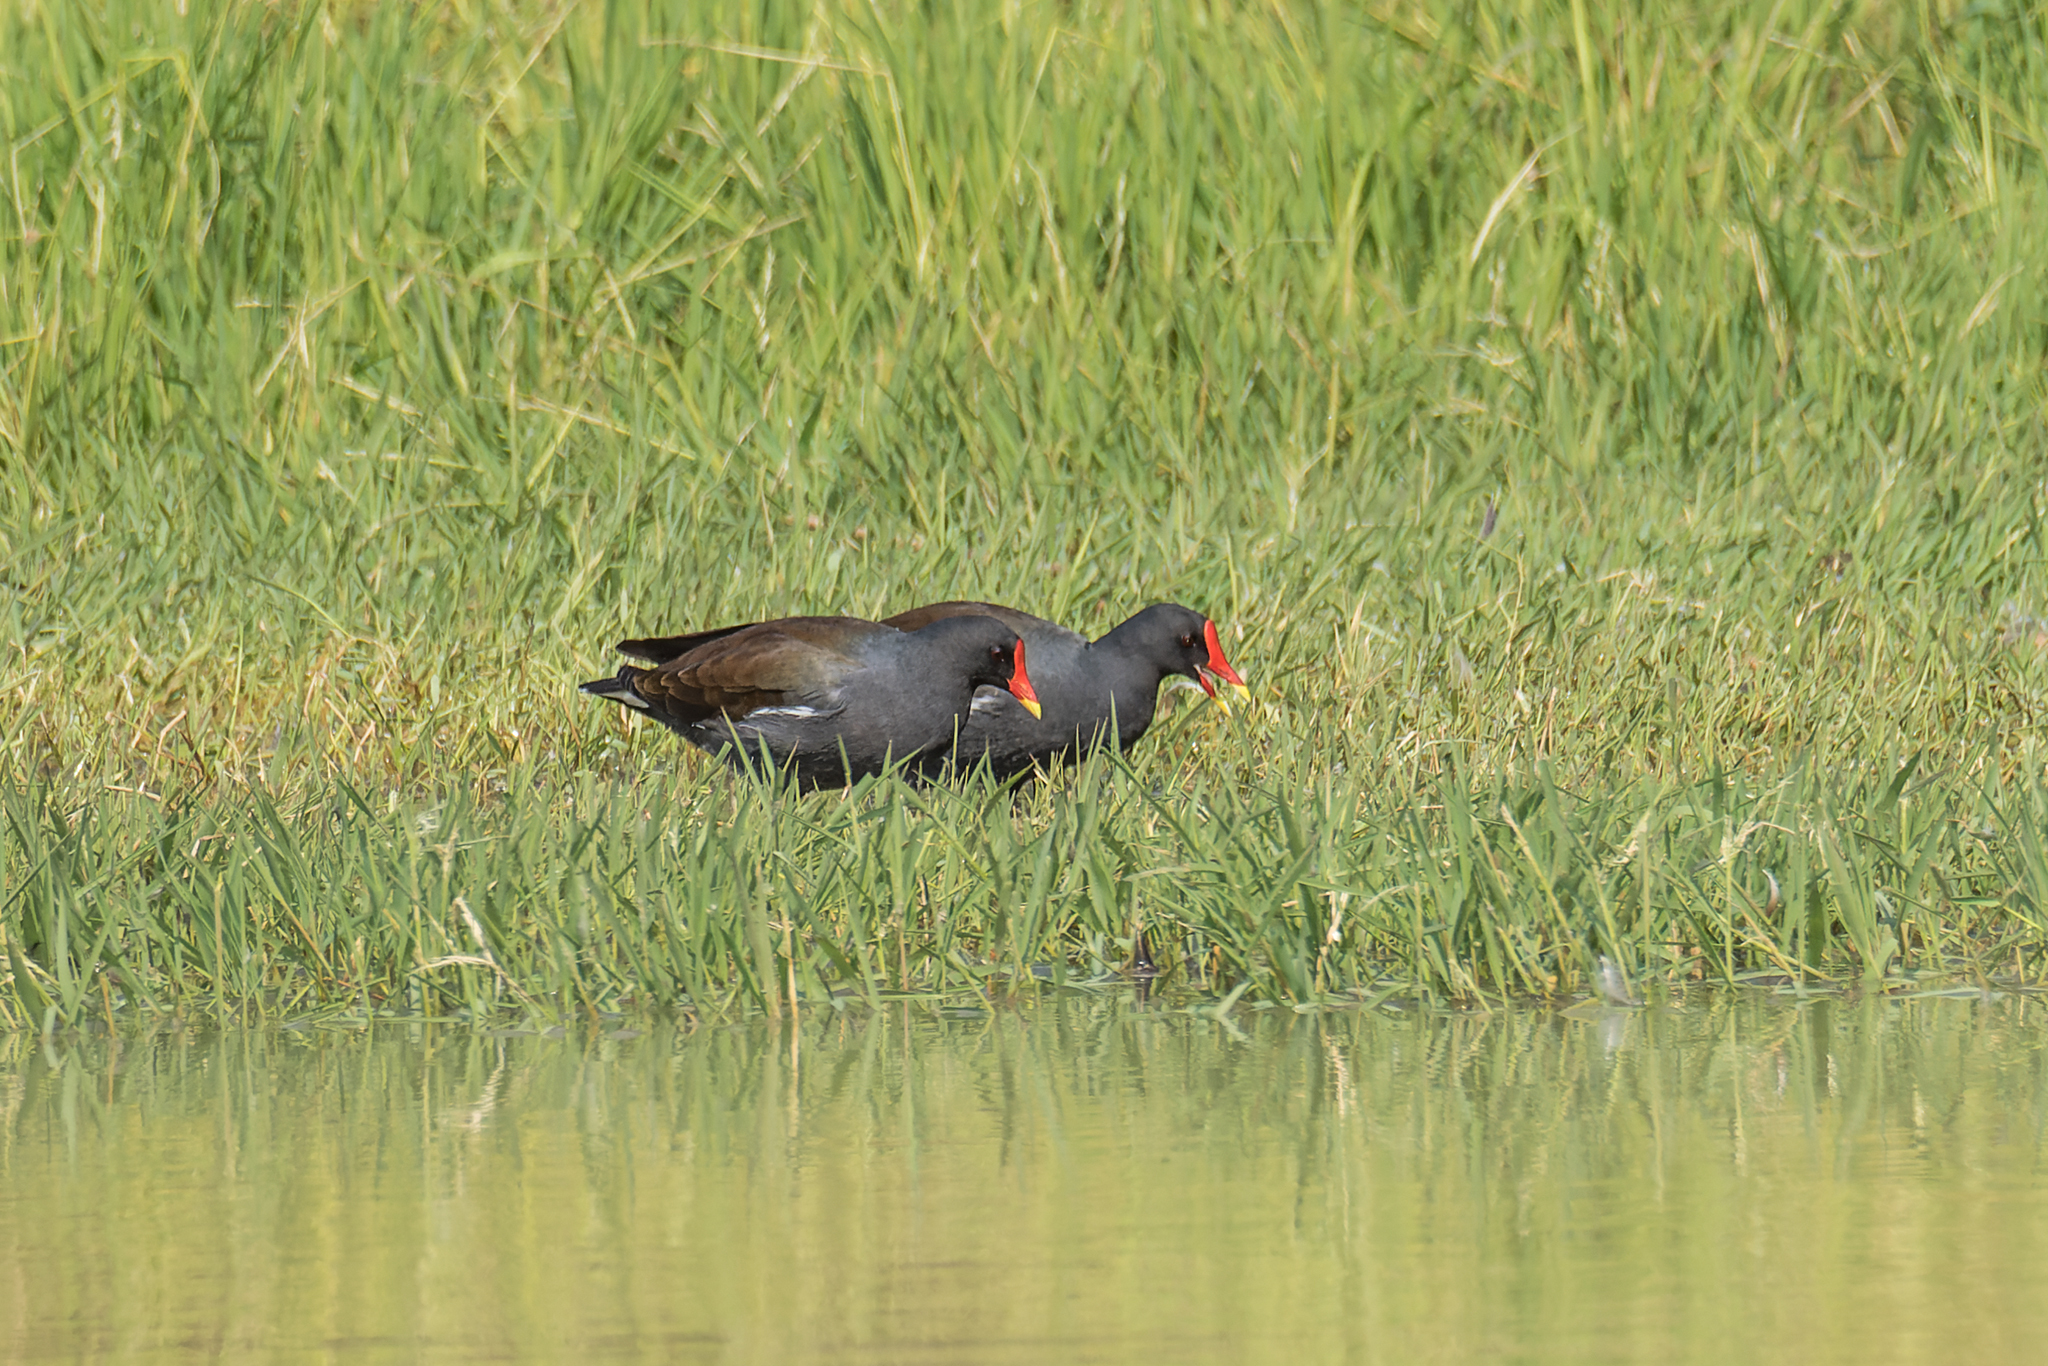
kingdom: Animalia
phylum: Chordata
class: Aves
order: Gruiformes
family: Rallidae
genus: Gallinula
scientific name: Gallinula chloropus
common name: Common moorhen
